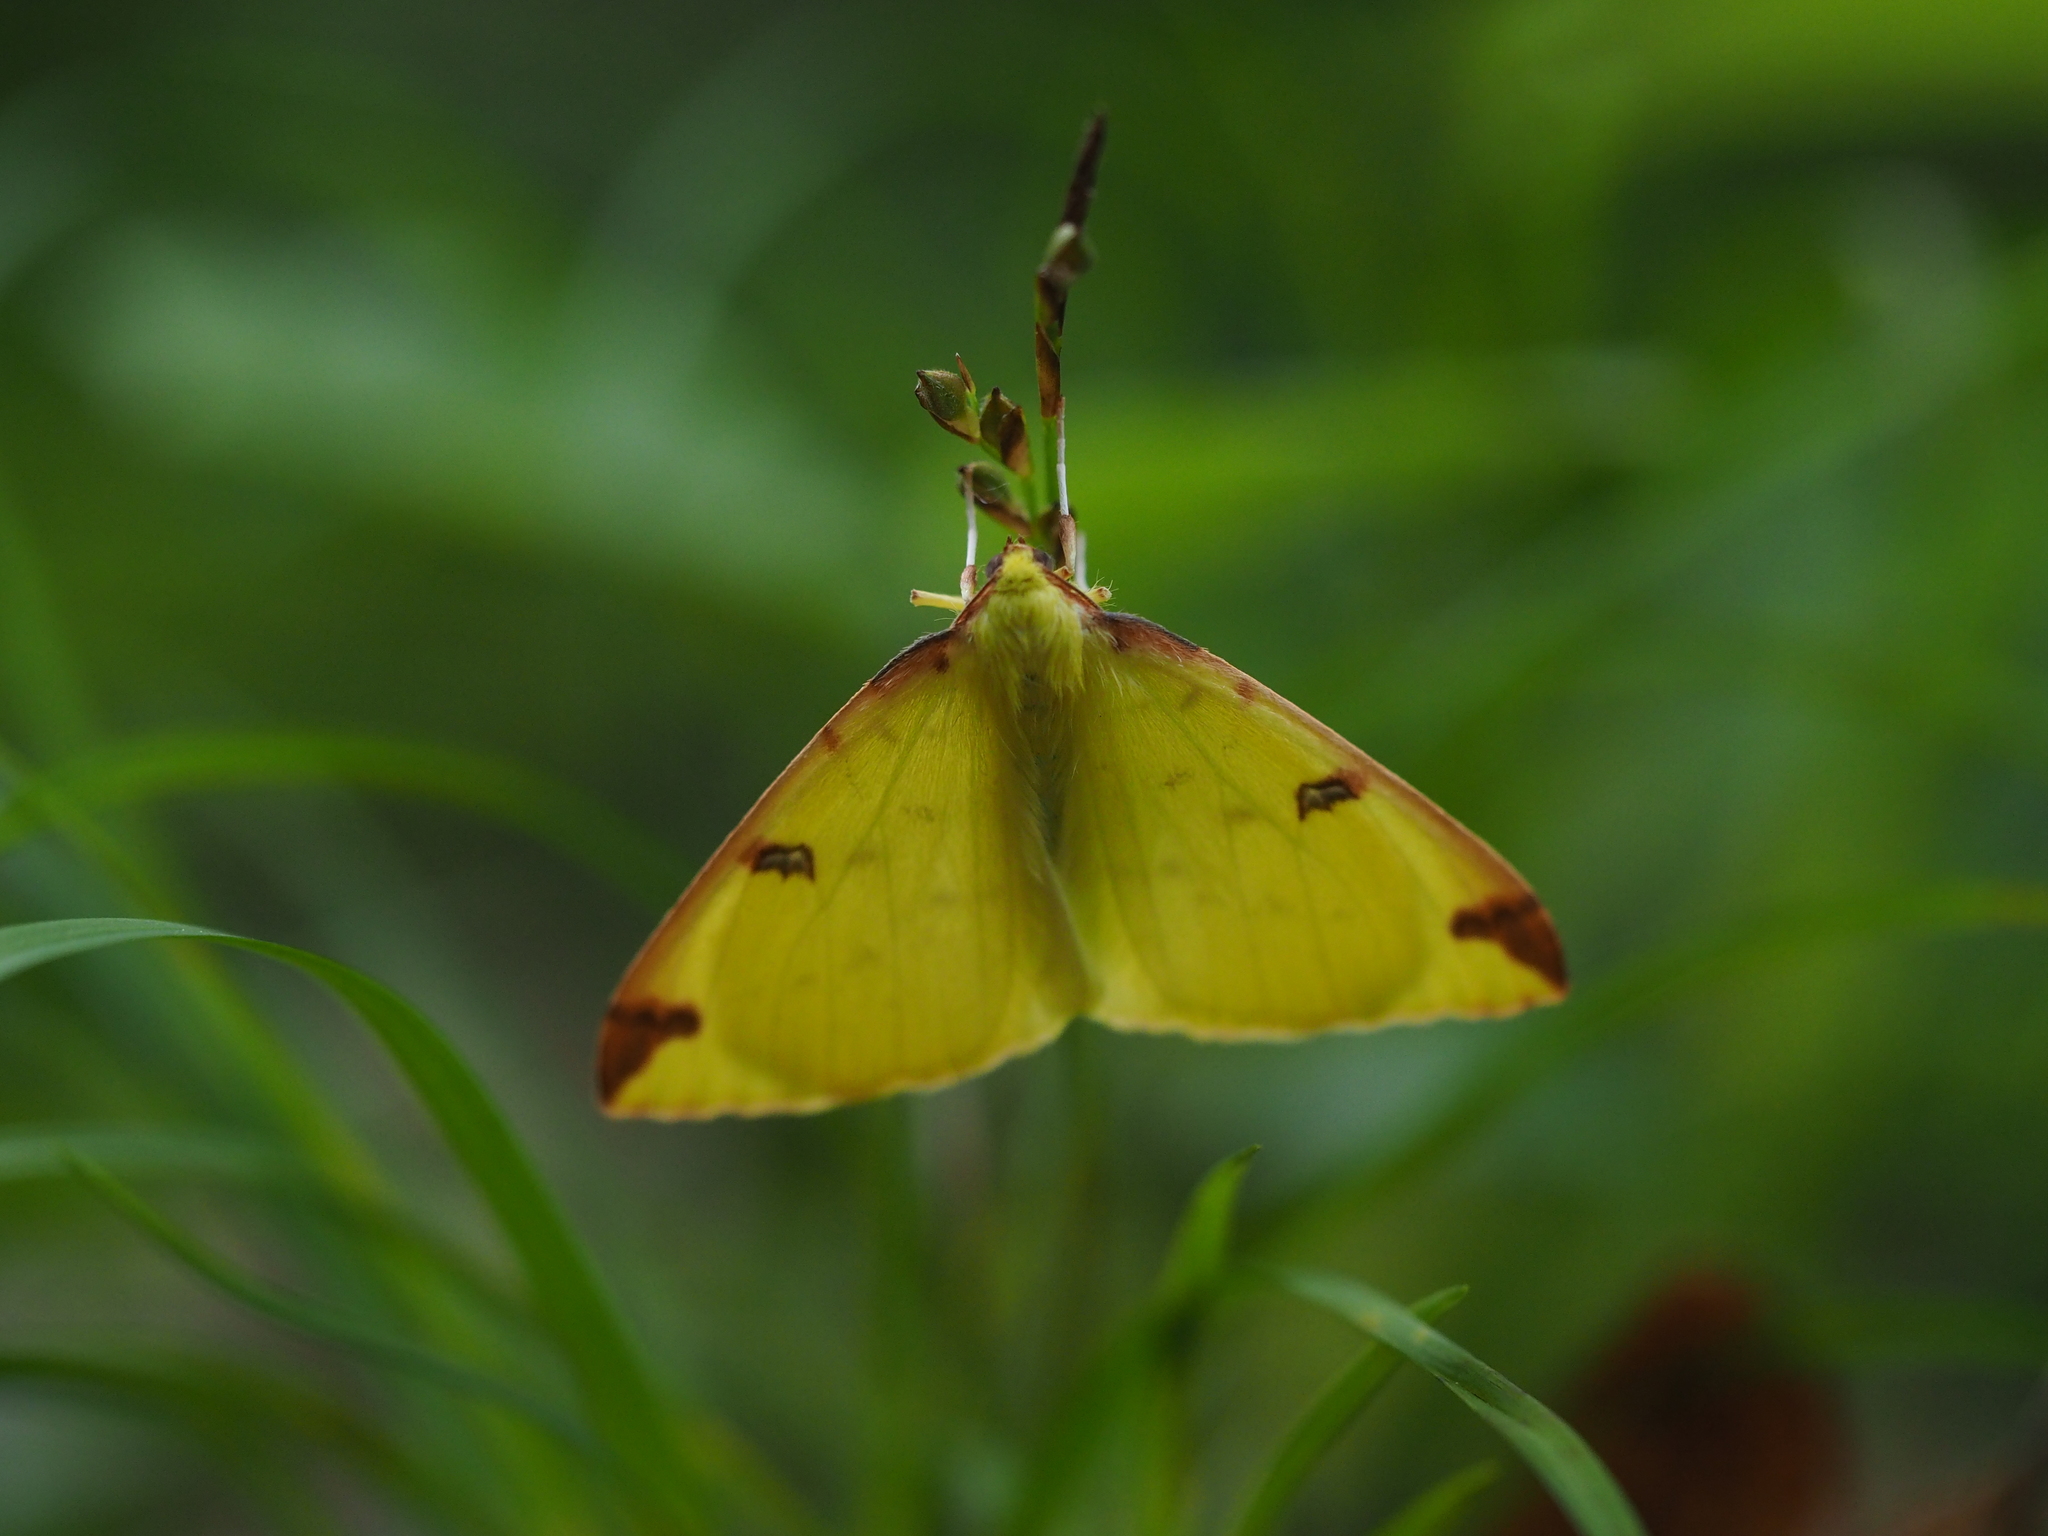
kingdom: Animalia
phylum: Arthropoda
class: Insecta
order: Lepidoptera
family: Geometridae
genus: Opisthograptis
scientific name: Opisthograptis luteolata
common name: Brimstone moth
